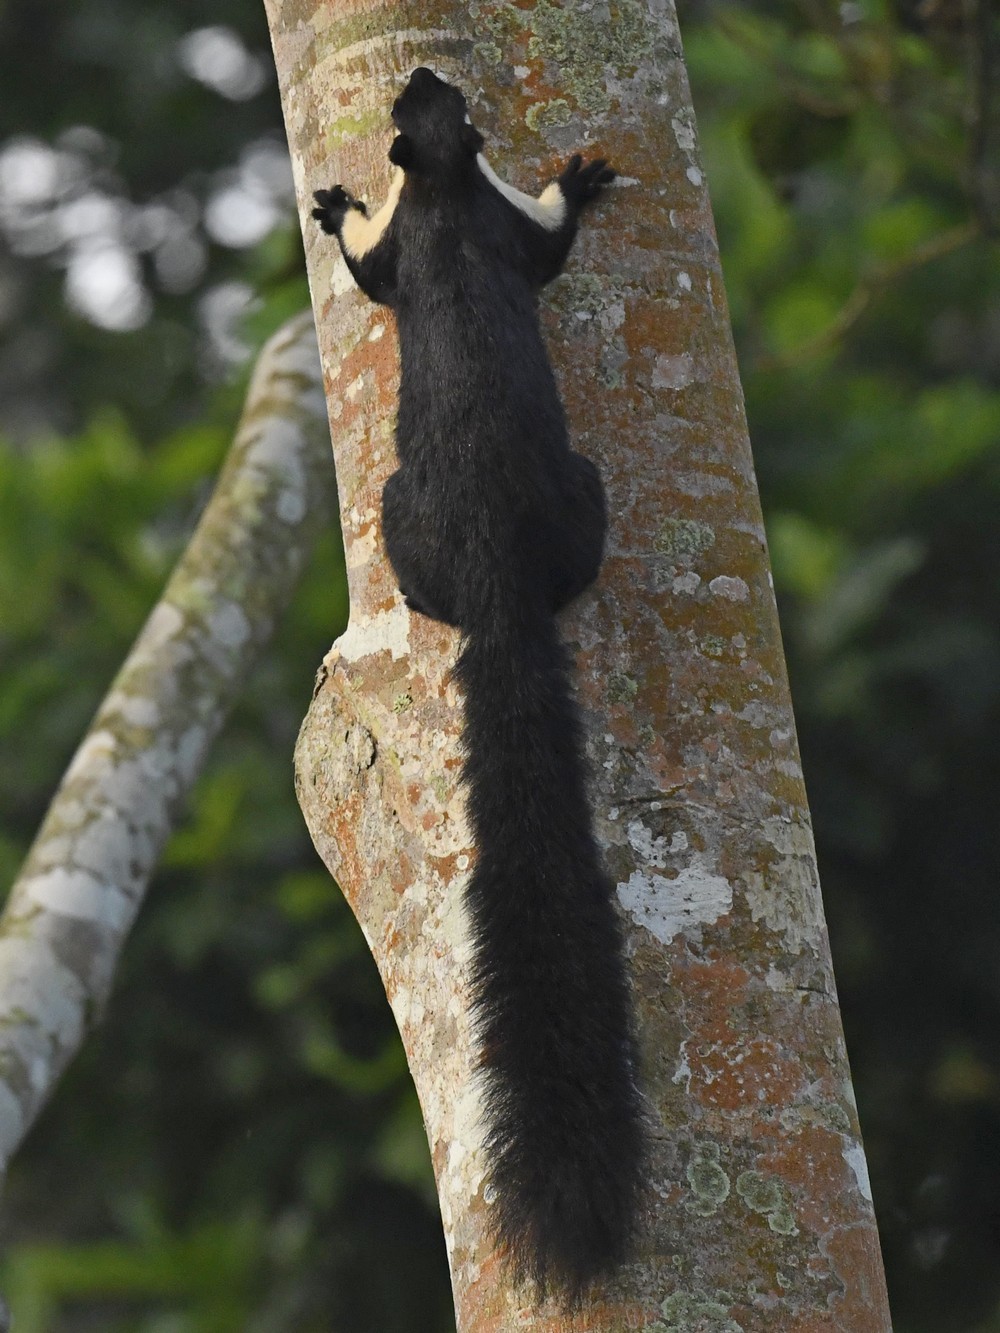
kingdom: Animalia
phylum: Chordata
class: Mammalia
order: Rodentia
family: Sciuridae
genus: Ratufa
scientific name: Ratufa bicolor
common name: Black giant squirrel
